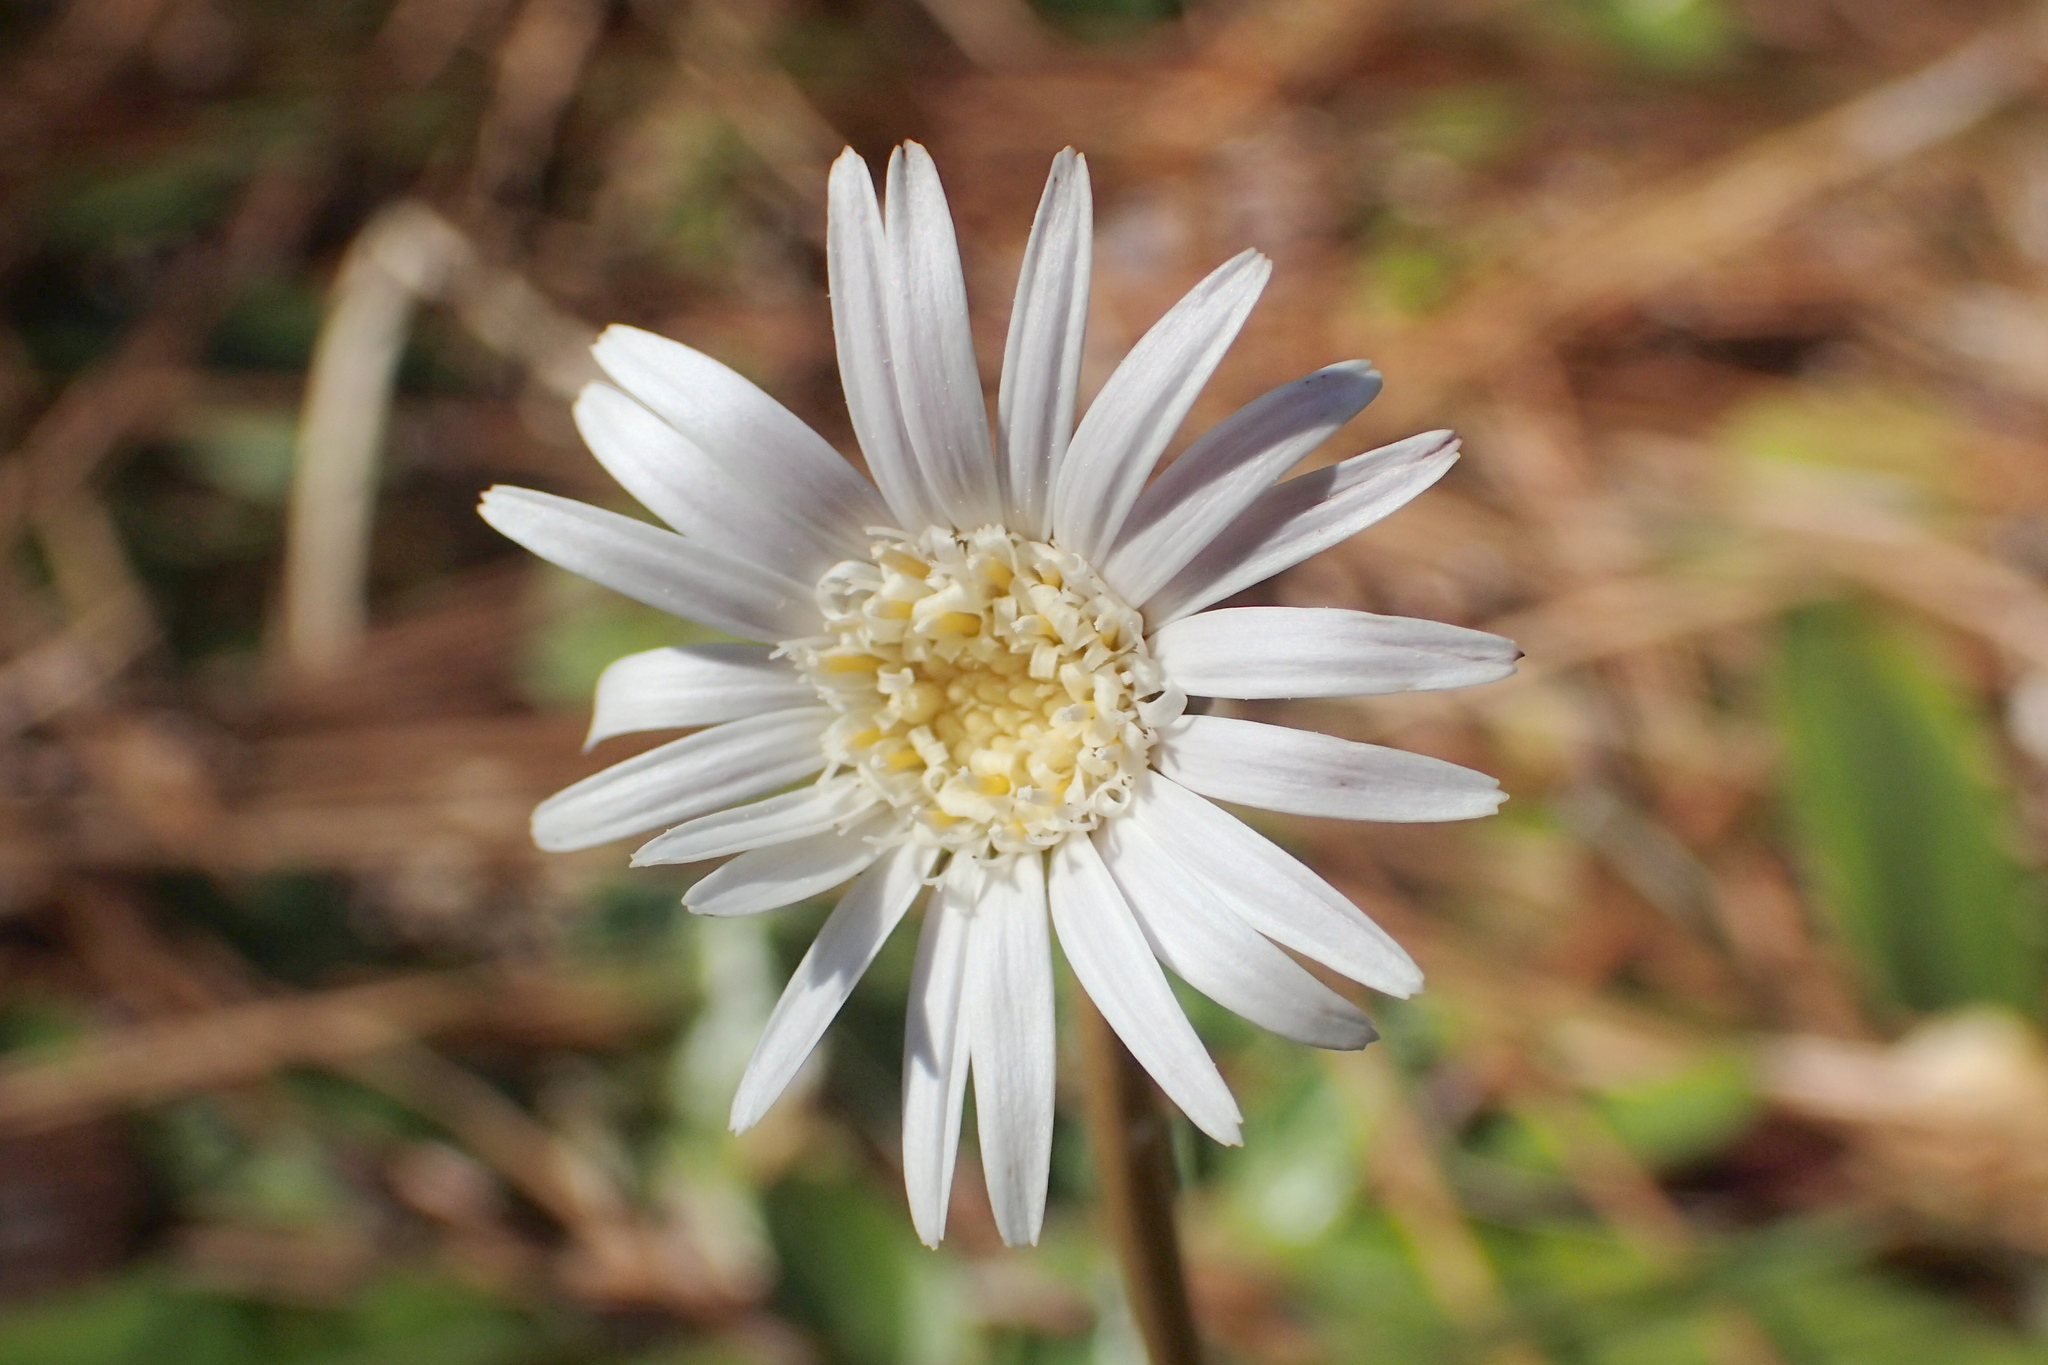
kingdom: Plantae
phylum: Tracheophyta
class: Magnoliopsida
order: Asterales
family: Asteraceae
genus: Chaptalia
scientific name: Chaptalia tomentosa
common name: Woolly sunbonnet
